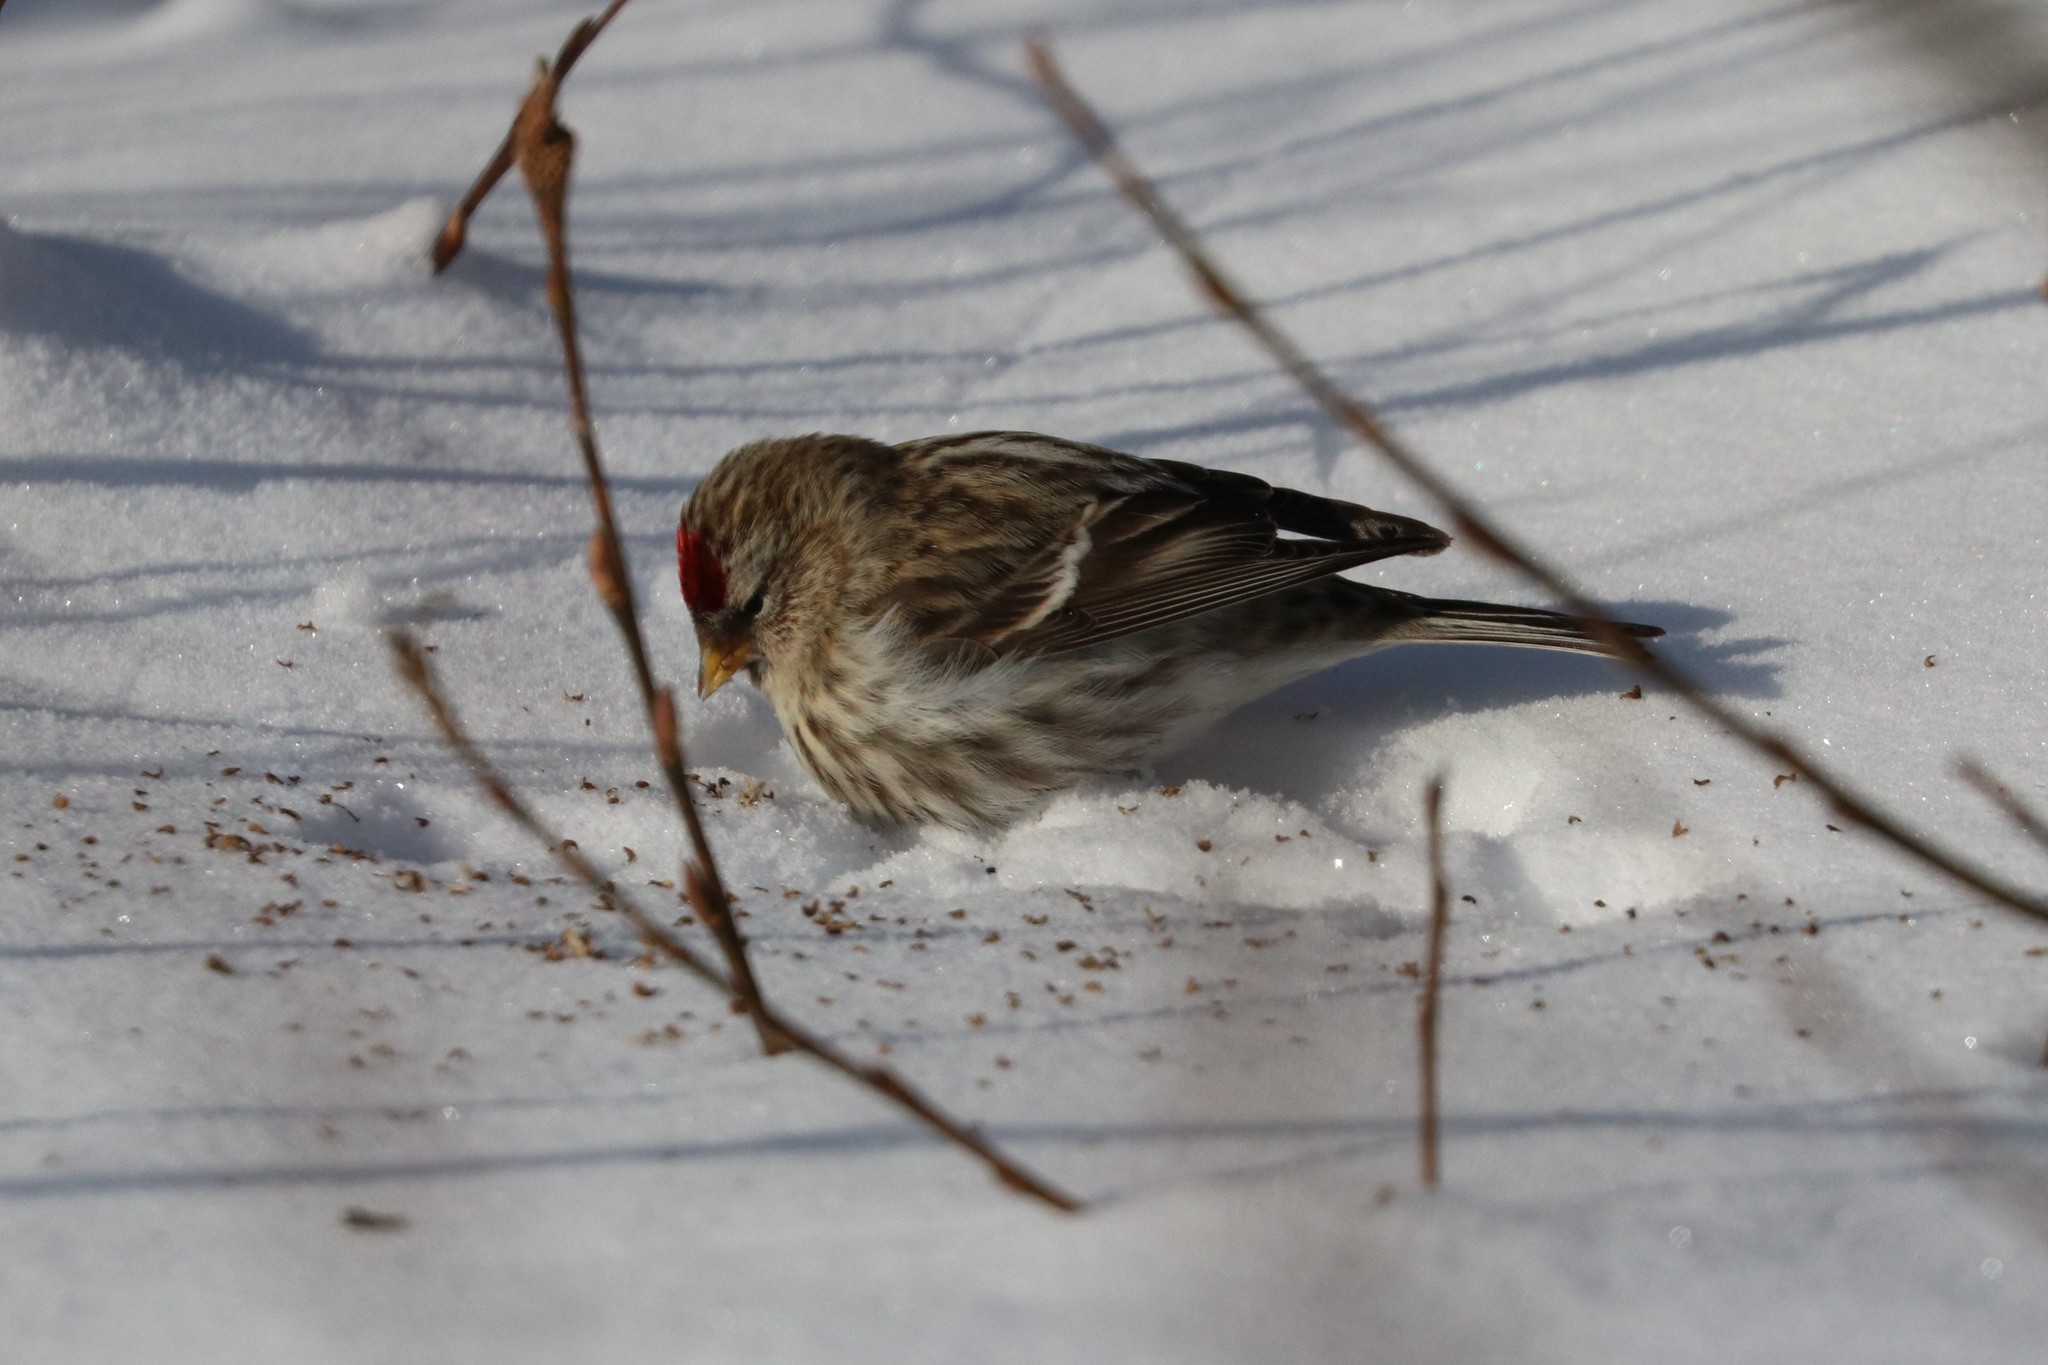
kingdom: Animalia
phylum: Chordata
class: Aves
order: Passeriformes
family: Fringillidae
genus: Acanthis
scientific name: Acanthis flammea
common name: Common redpoll
